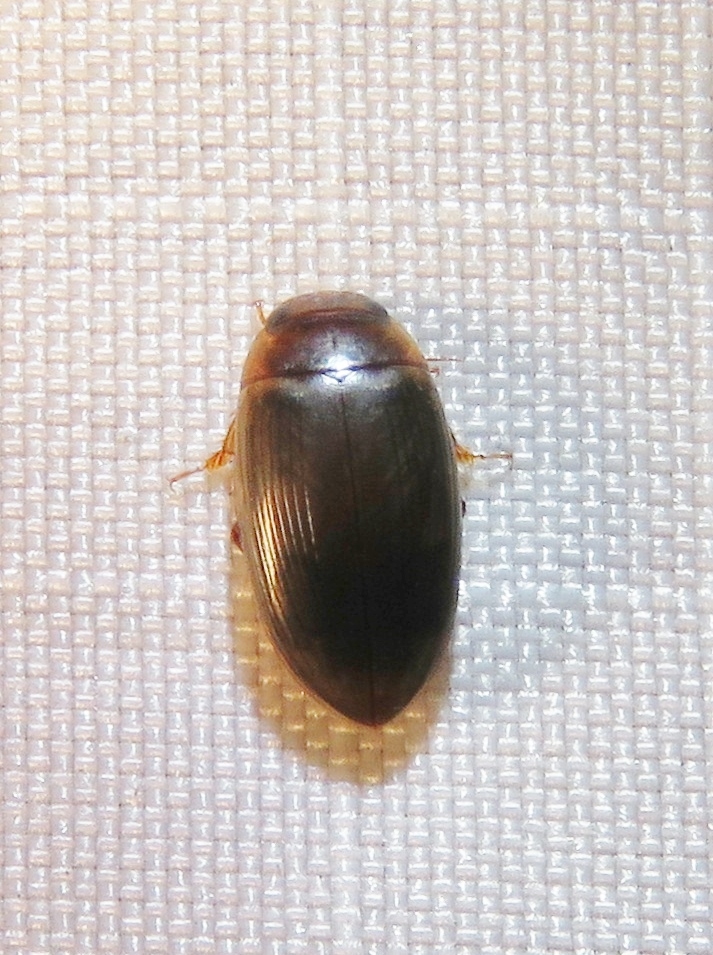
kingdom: Animalia
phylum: Arthropoda
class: Insecta
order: Coleoptera
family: Dytiscidae
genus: Copelatus
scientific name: Copelatus chevrolati
